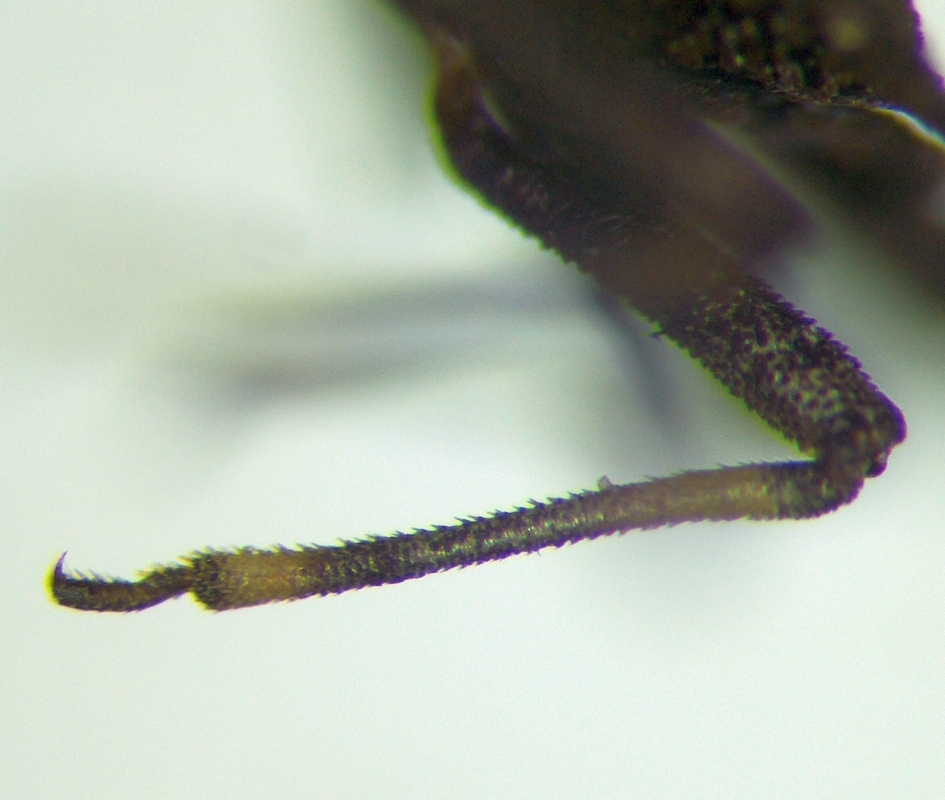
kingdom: Animalia
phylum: Arthropoda
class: Insecta
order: Hemiptera
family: Aradidae
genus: Aradus
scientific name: Aradus brevicollis
